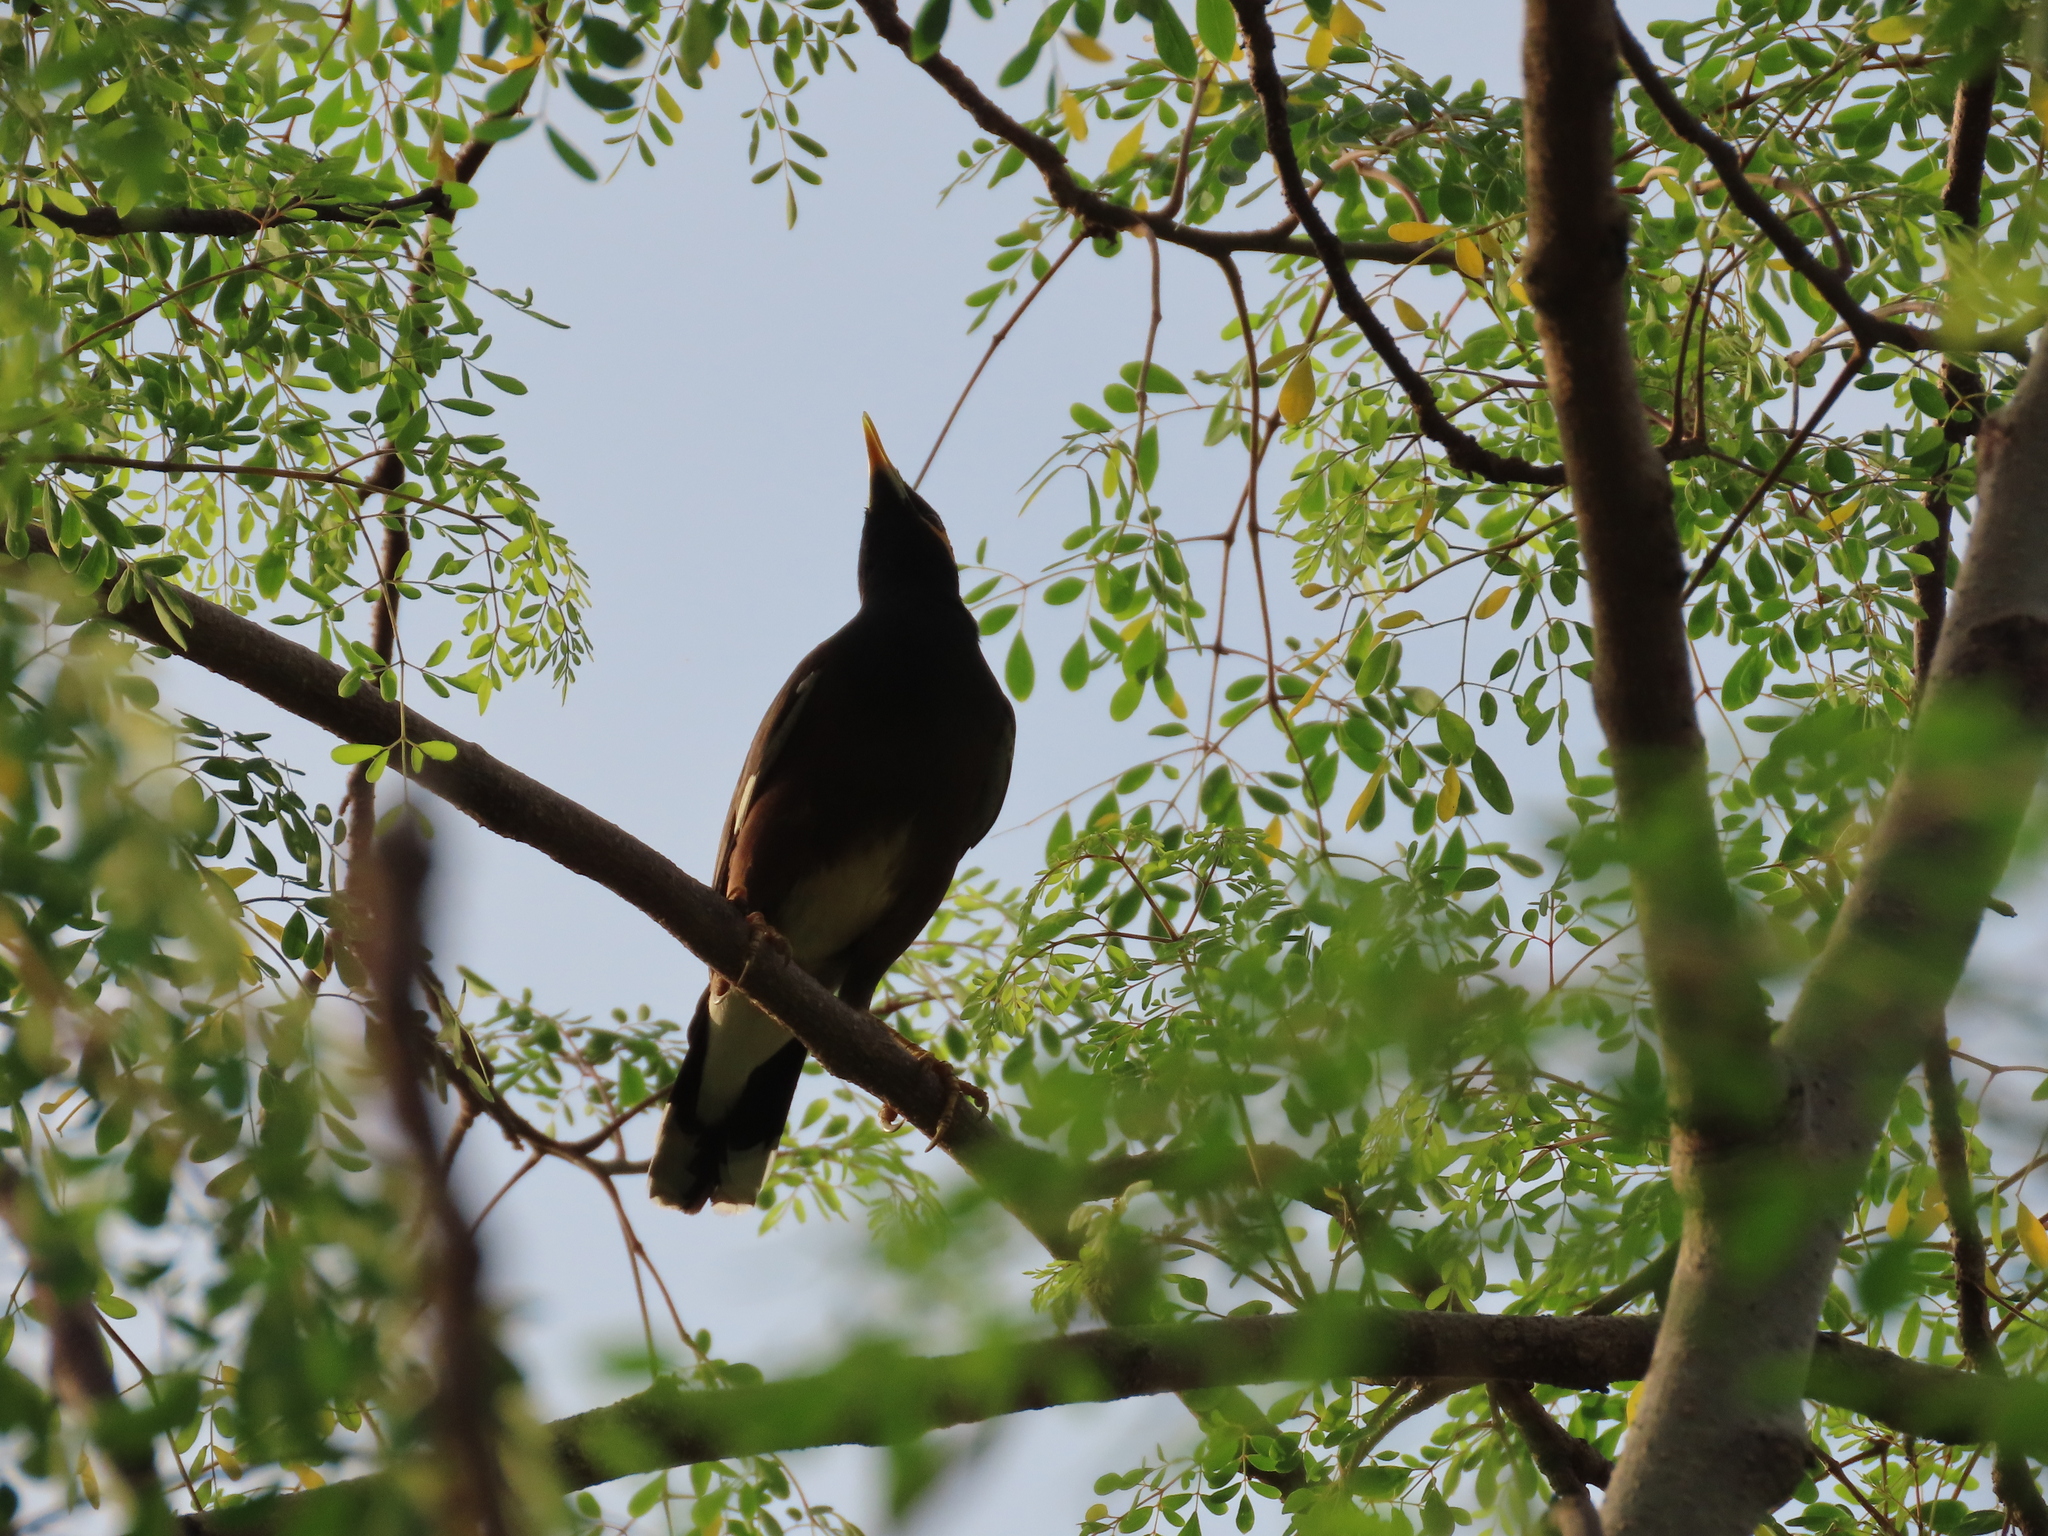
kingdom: Animalia
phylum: Chordata
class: Aves
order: Passeriformes
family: Sturnidae
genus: Acridotheres
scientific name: Acridotheres tristis
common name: Common myna
